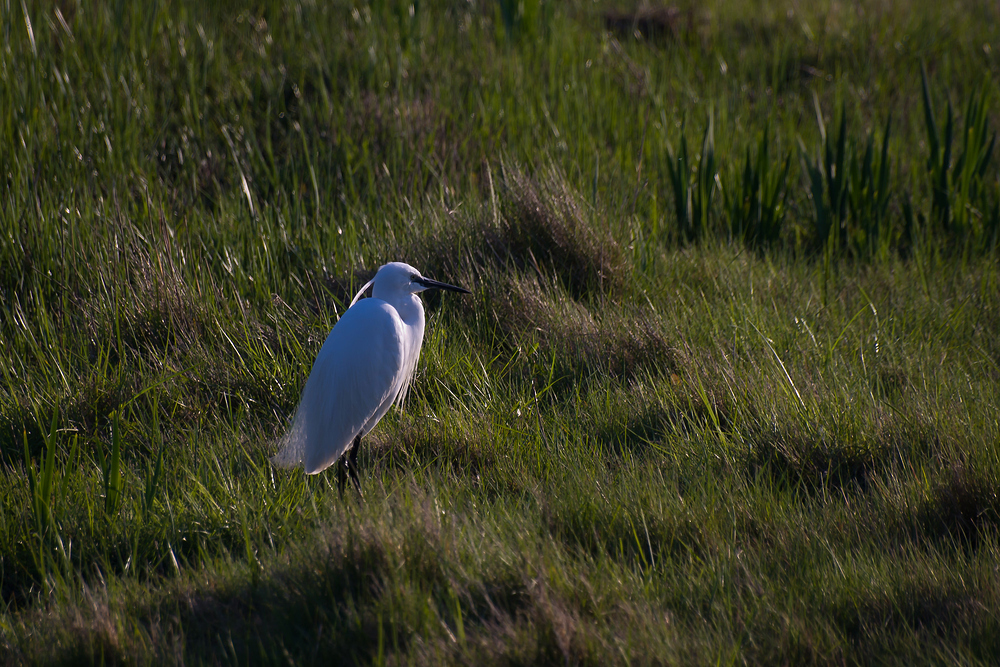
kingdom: Animalia
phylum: Chordata
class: Aves
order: Pelecaniformes
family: Ardeidae
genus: Egretta
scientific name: Egretta garzetta
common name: Little egret
